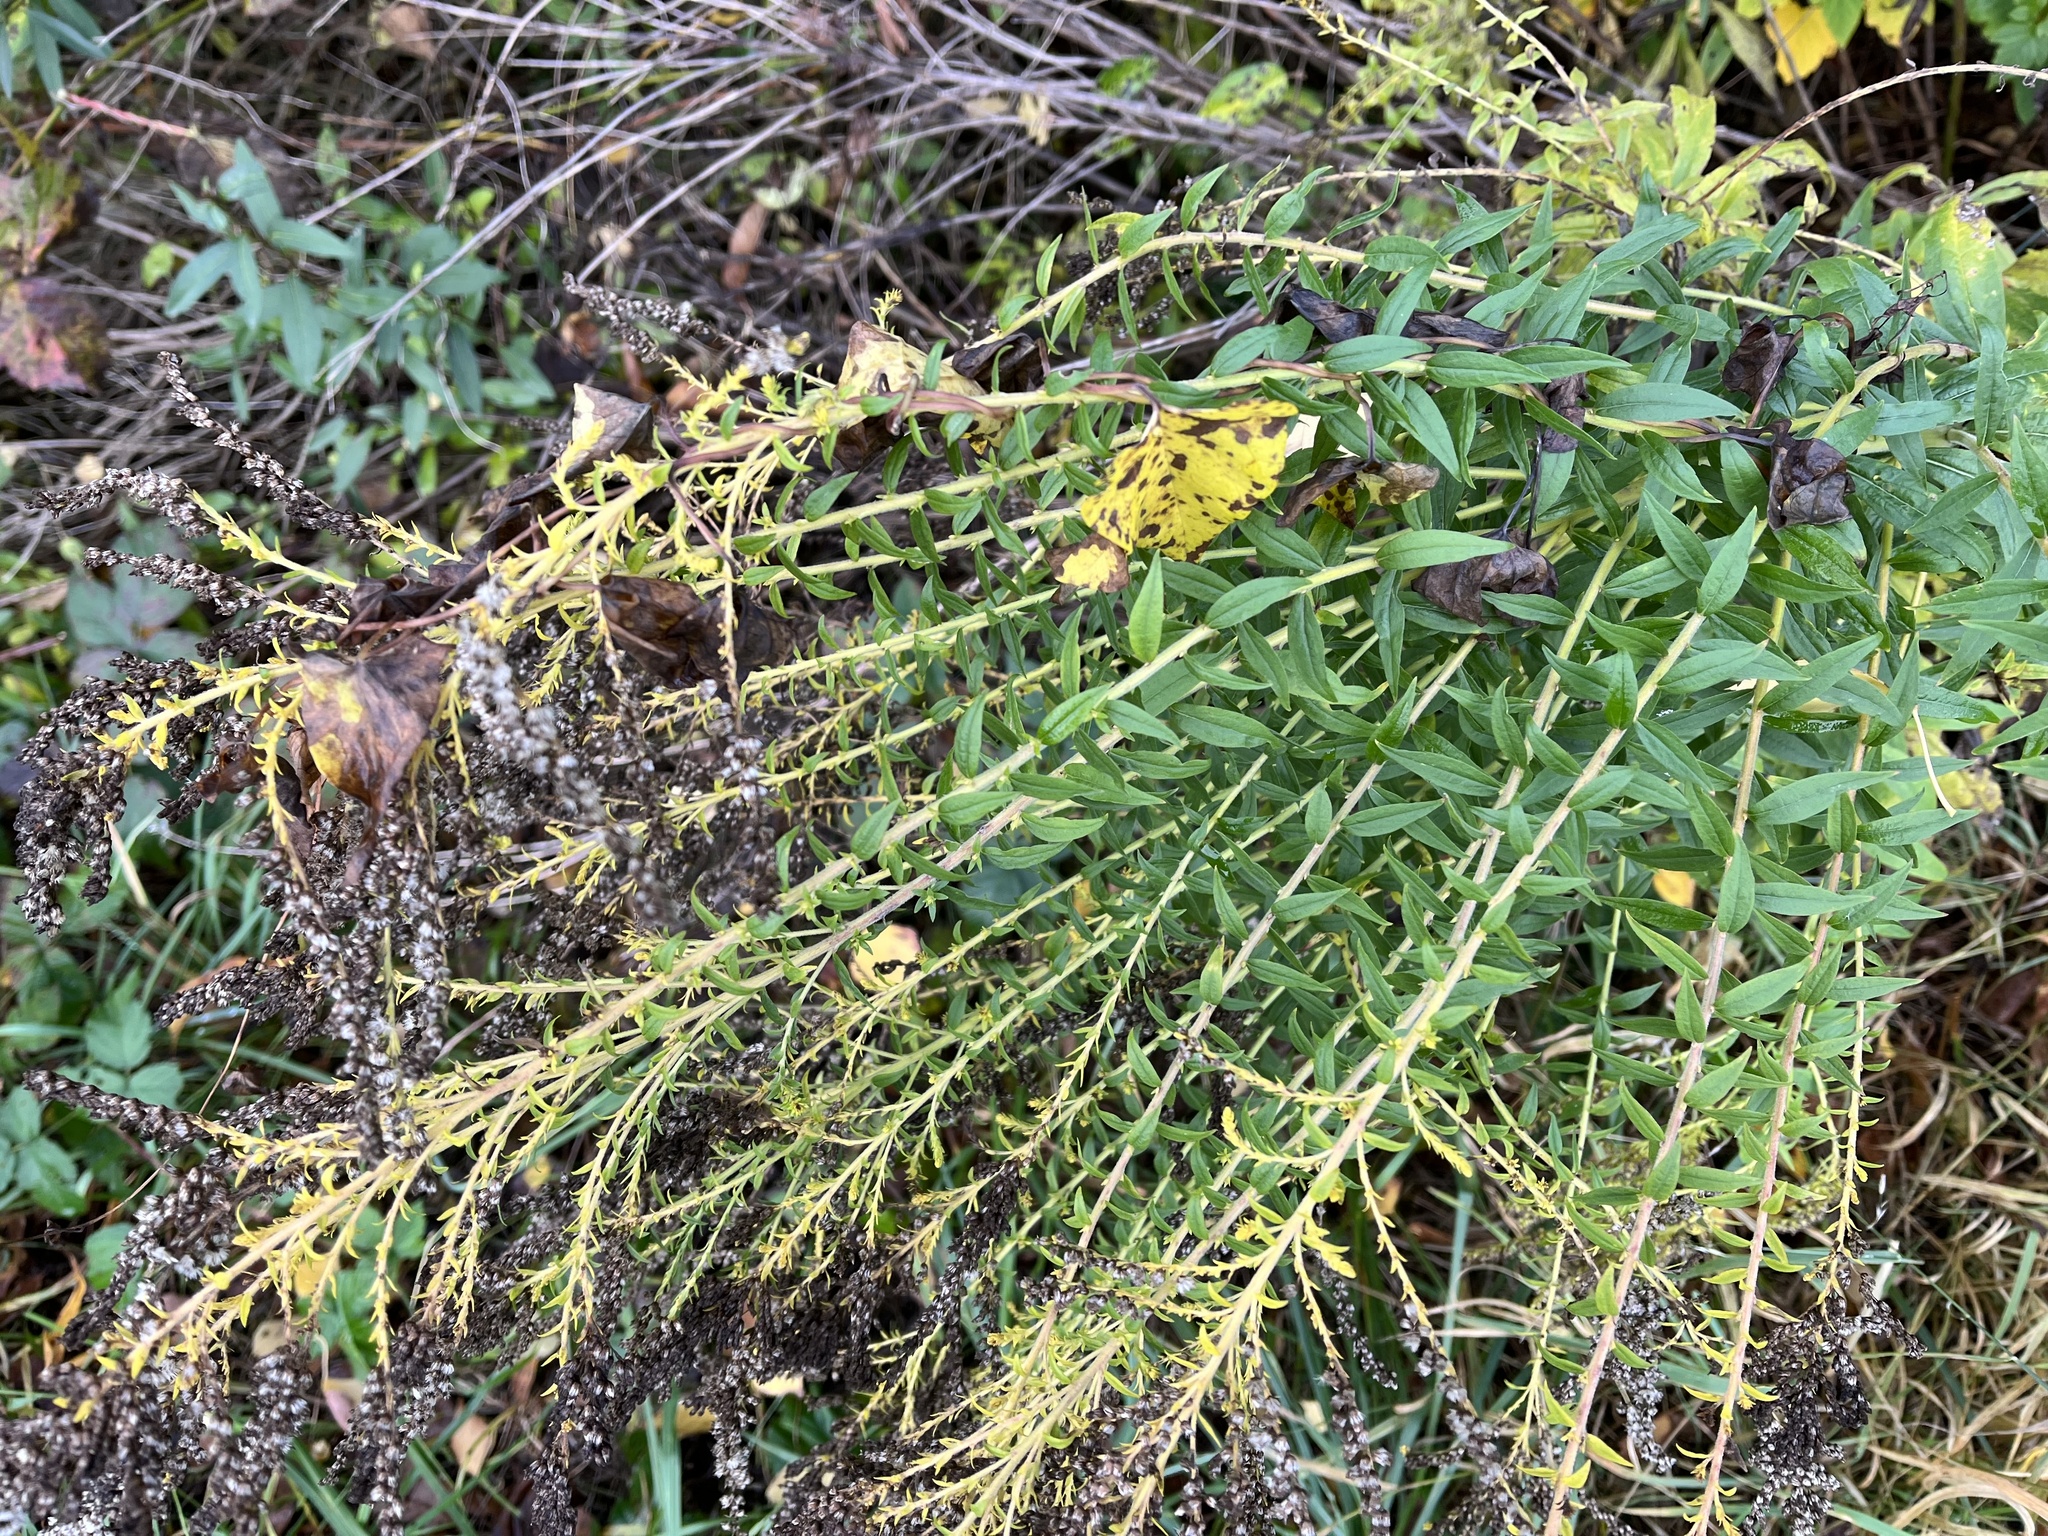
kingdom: Plantae
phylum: Tracheophyta
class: Magnoliopsida
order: Asterales
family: Asteraceae
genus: Solidago
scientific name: Solidago canadensis
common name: Canada goldenrod
